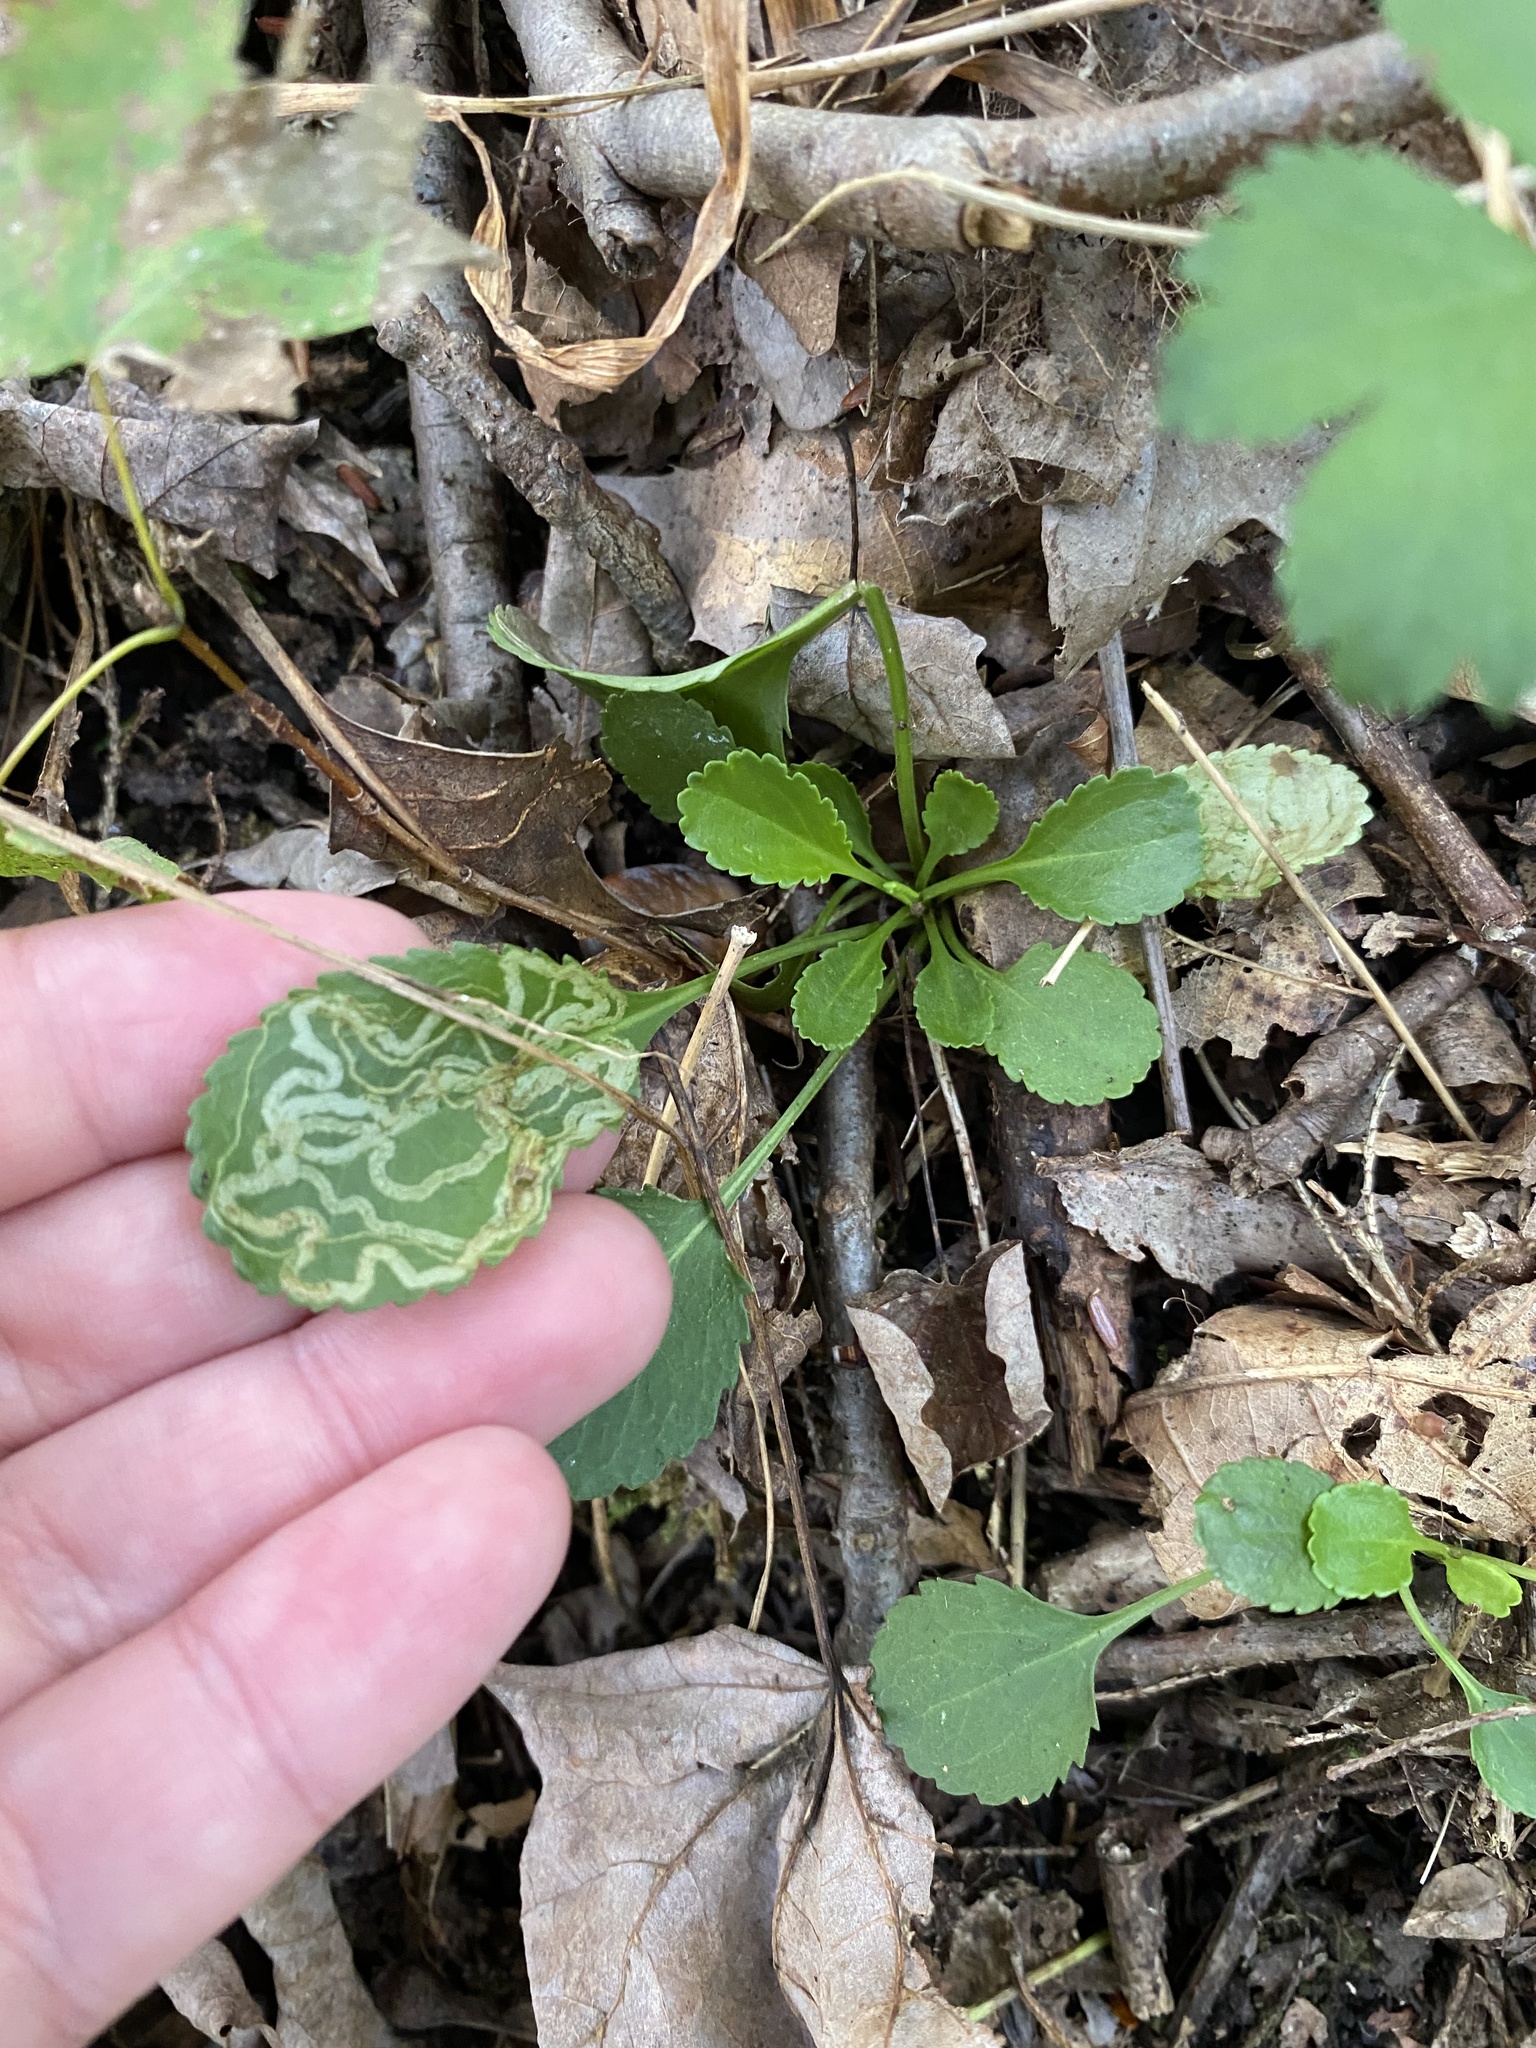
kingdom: Animalia
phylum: Arthropoda
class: Insecta
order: Lepidoptera
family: Gracillariidae
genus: Phyllocnistis
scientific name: Phyllocnistis insignis
